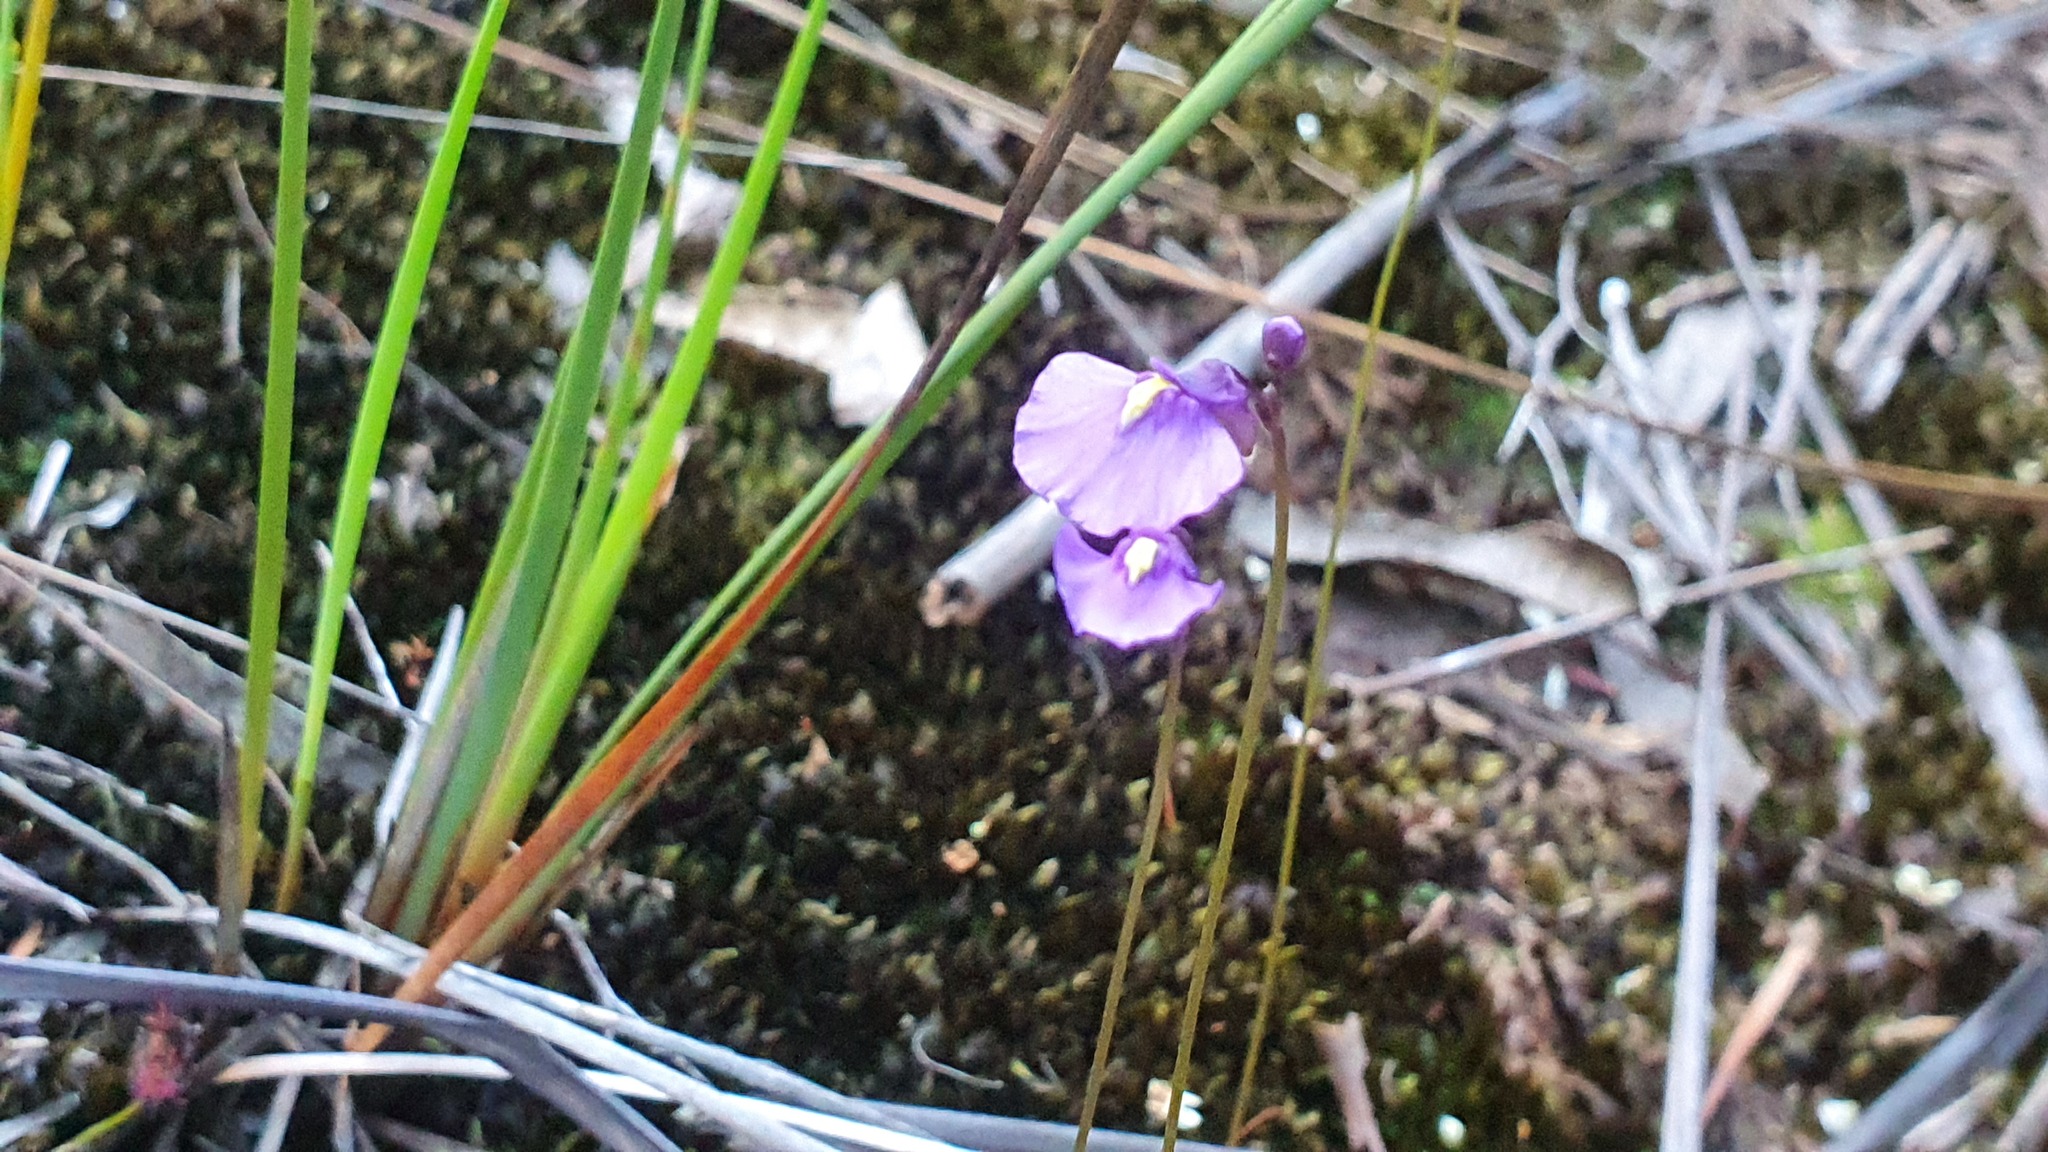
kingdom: Plantae
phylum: Tracheophyta
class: Magnoliopsida
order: Lamiales
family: Lentibulariaceae
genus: Utricularia
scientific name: Utricularia dichotoma
